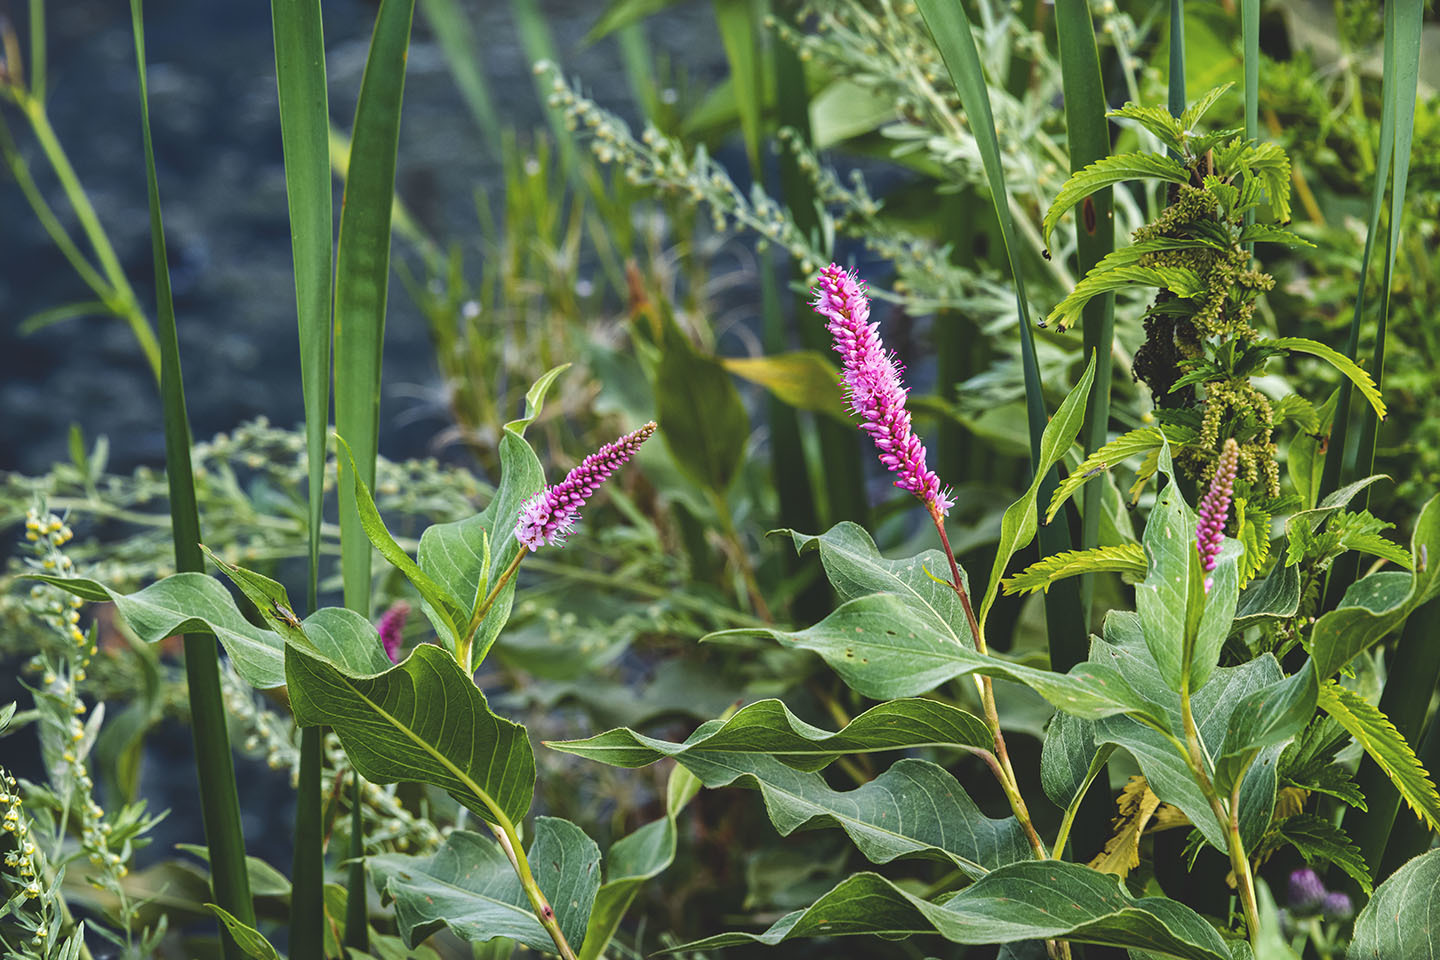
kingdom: Plantae
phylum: Tracheophyta
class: Magnoliopsida
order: Caryophyllales
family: Polygonaceae
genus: Persicaria
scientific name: Persicaria amphibia
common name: Amphibious bistort
